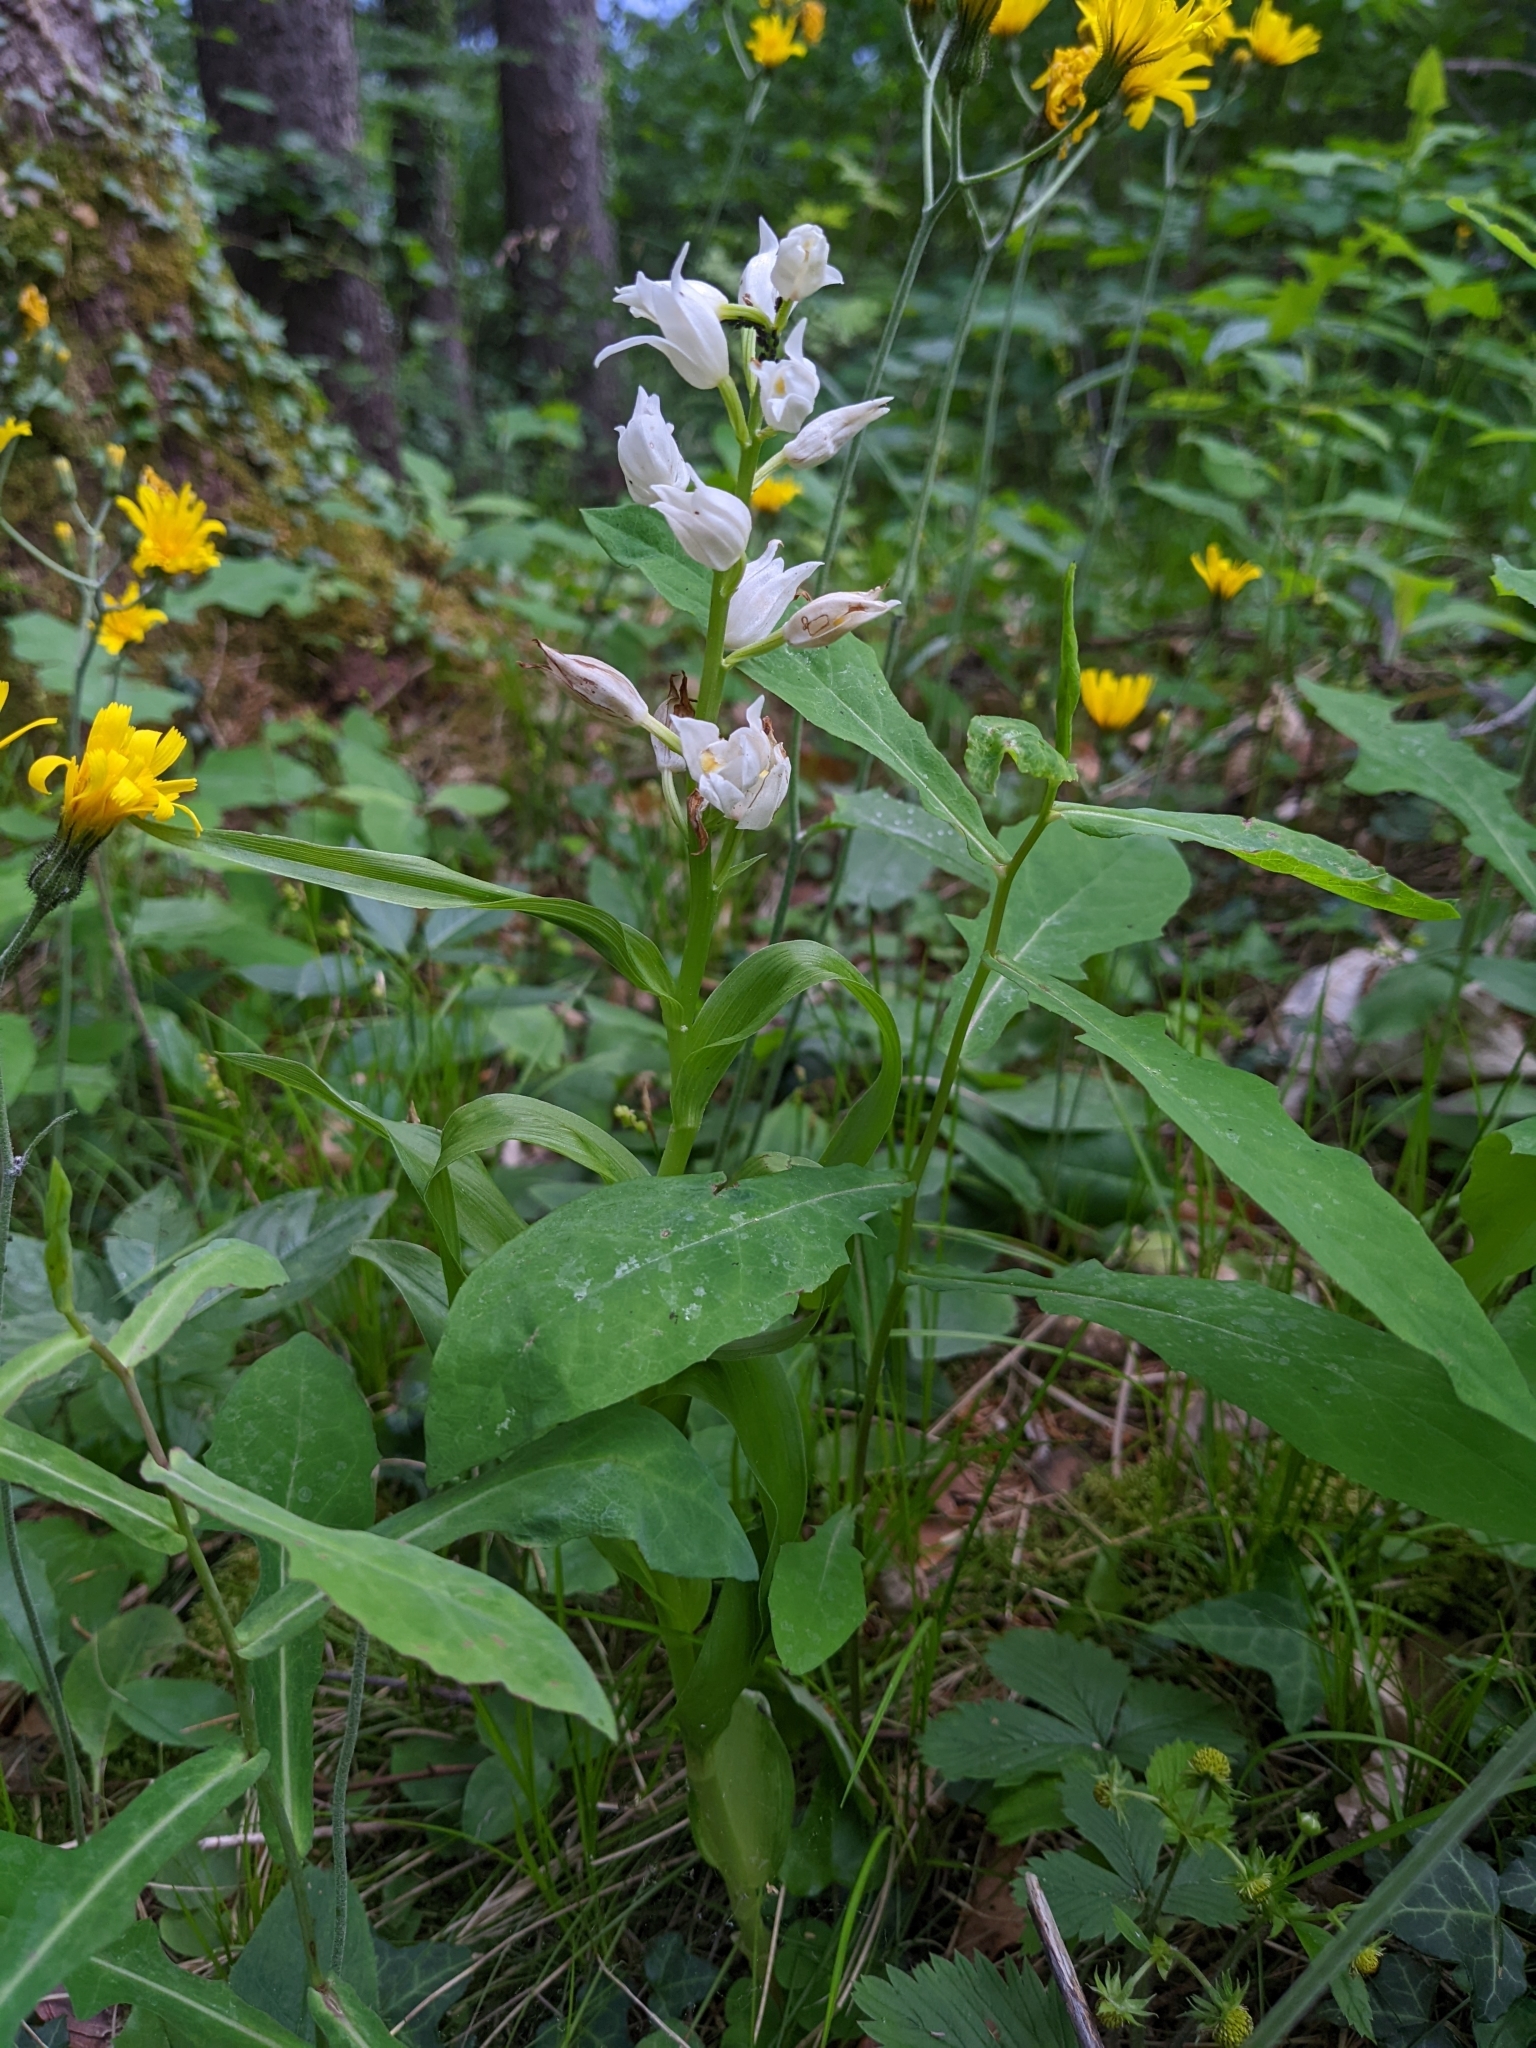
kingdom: Plantae
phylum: Tracheophyta
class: Liliopsida
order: Asparagales
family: Orchidaceae
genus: Cephalanthera
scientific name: Cephalanthera longifolia
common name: Narrow-leaved helleborine
